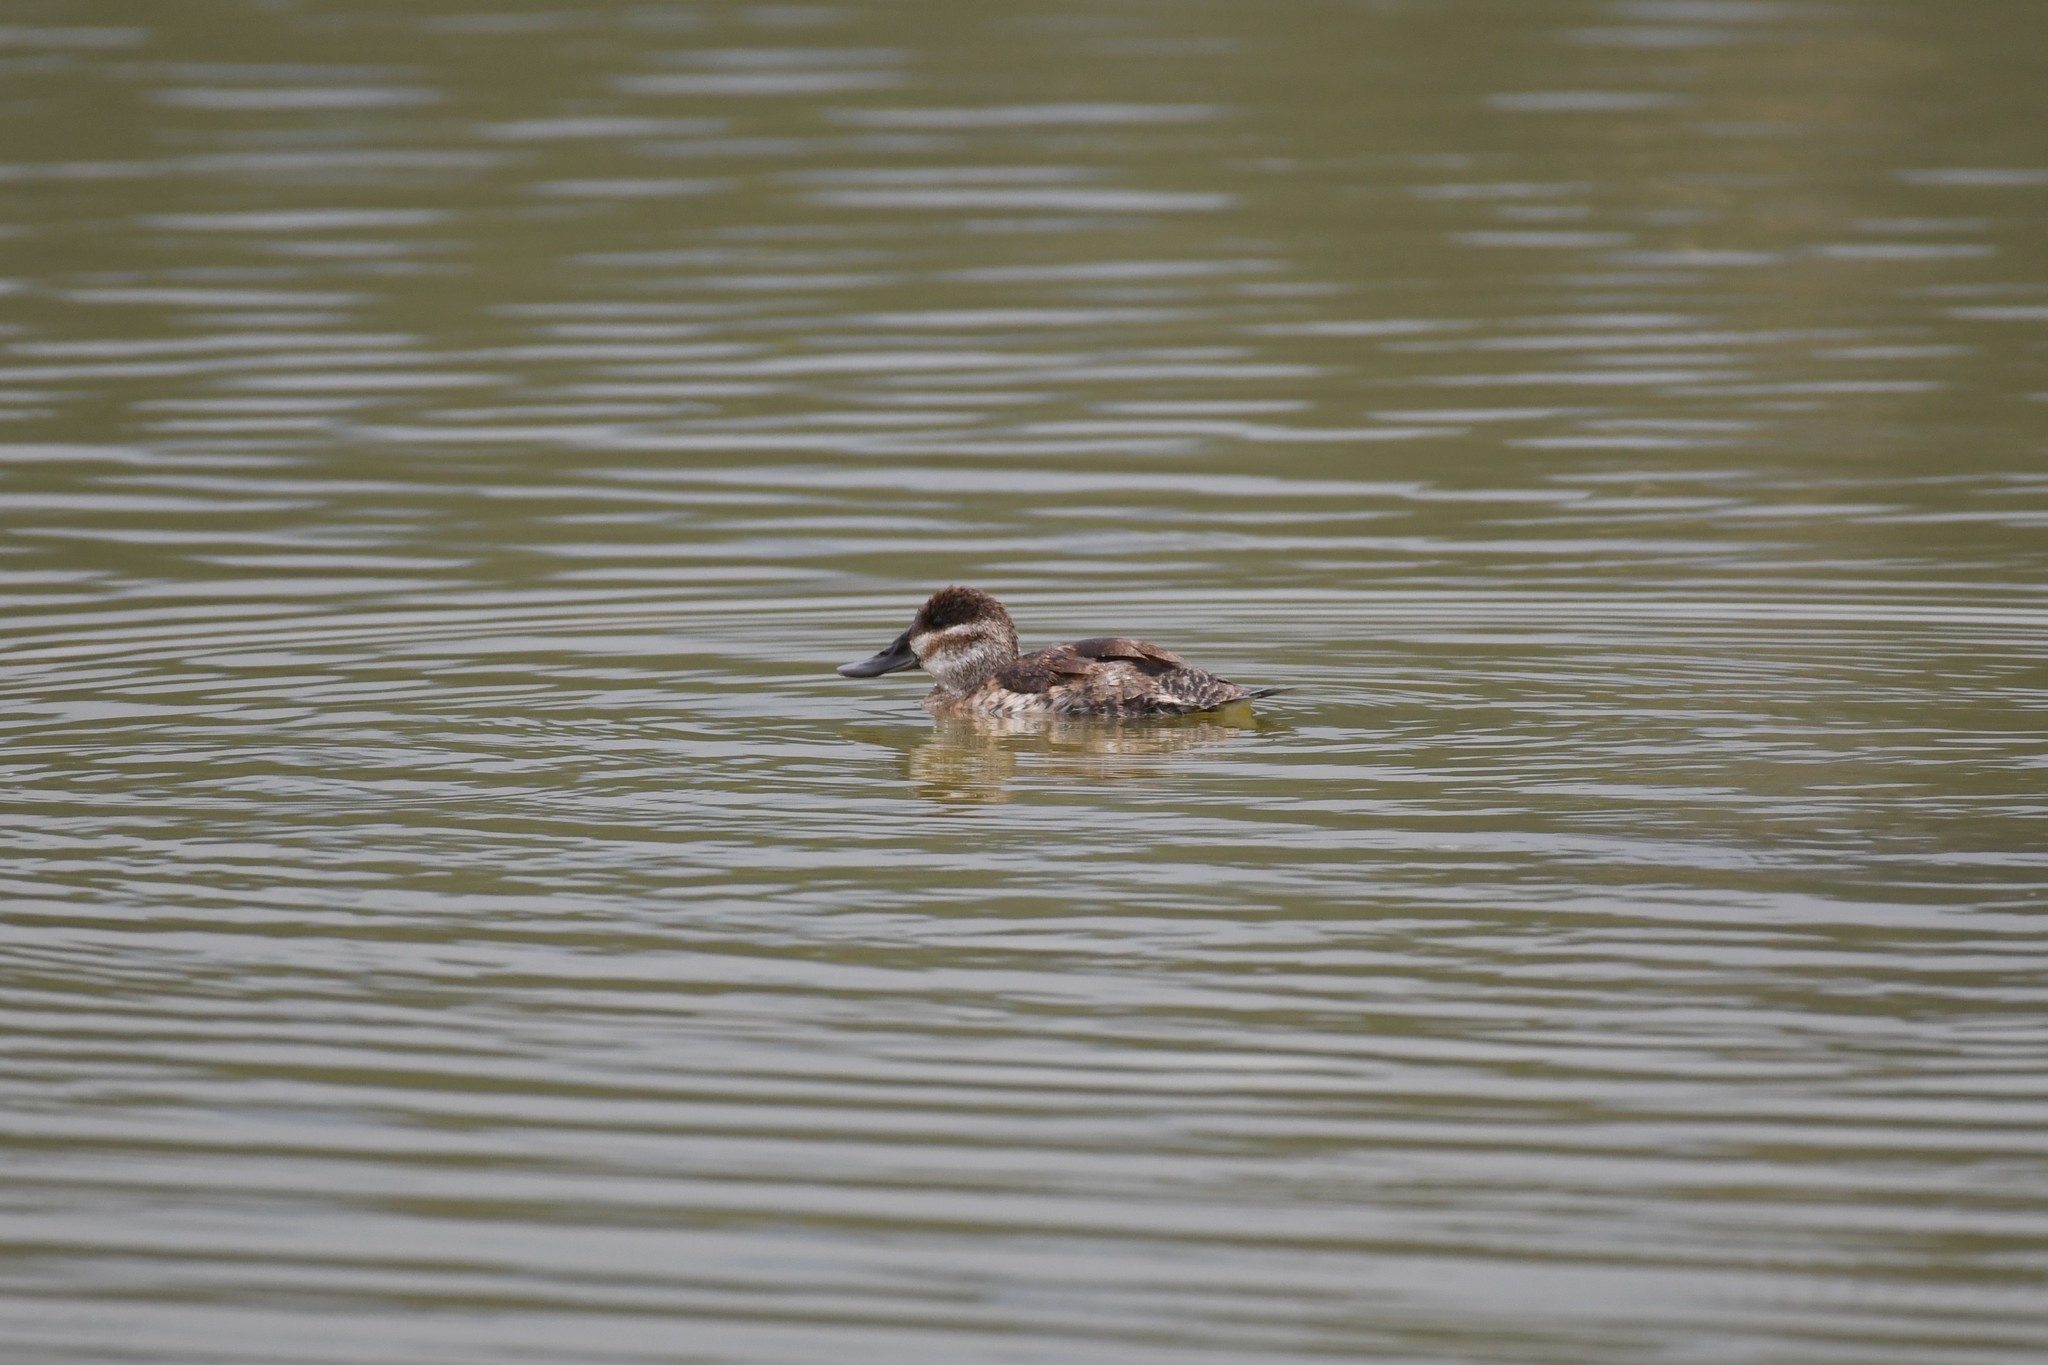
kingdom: Animalia
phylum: Chordata
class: Aves
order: Anseriformes
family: Anatidae
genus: Oxyura
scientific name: Oxyura jamaicensis
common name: Ruddy duck
